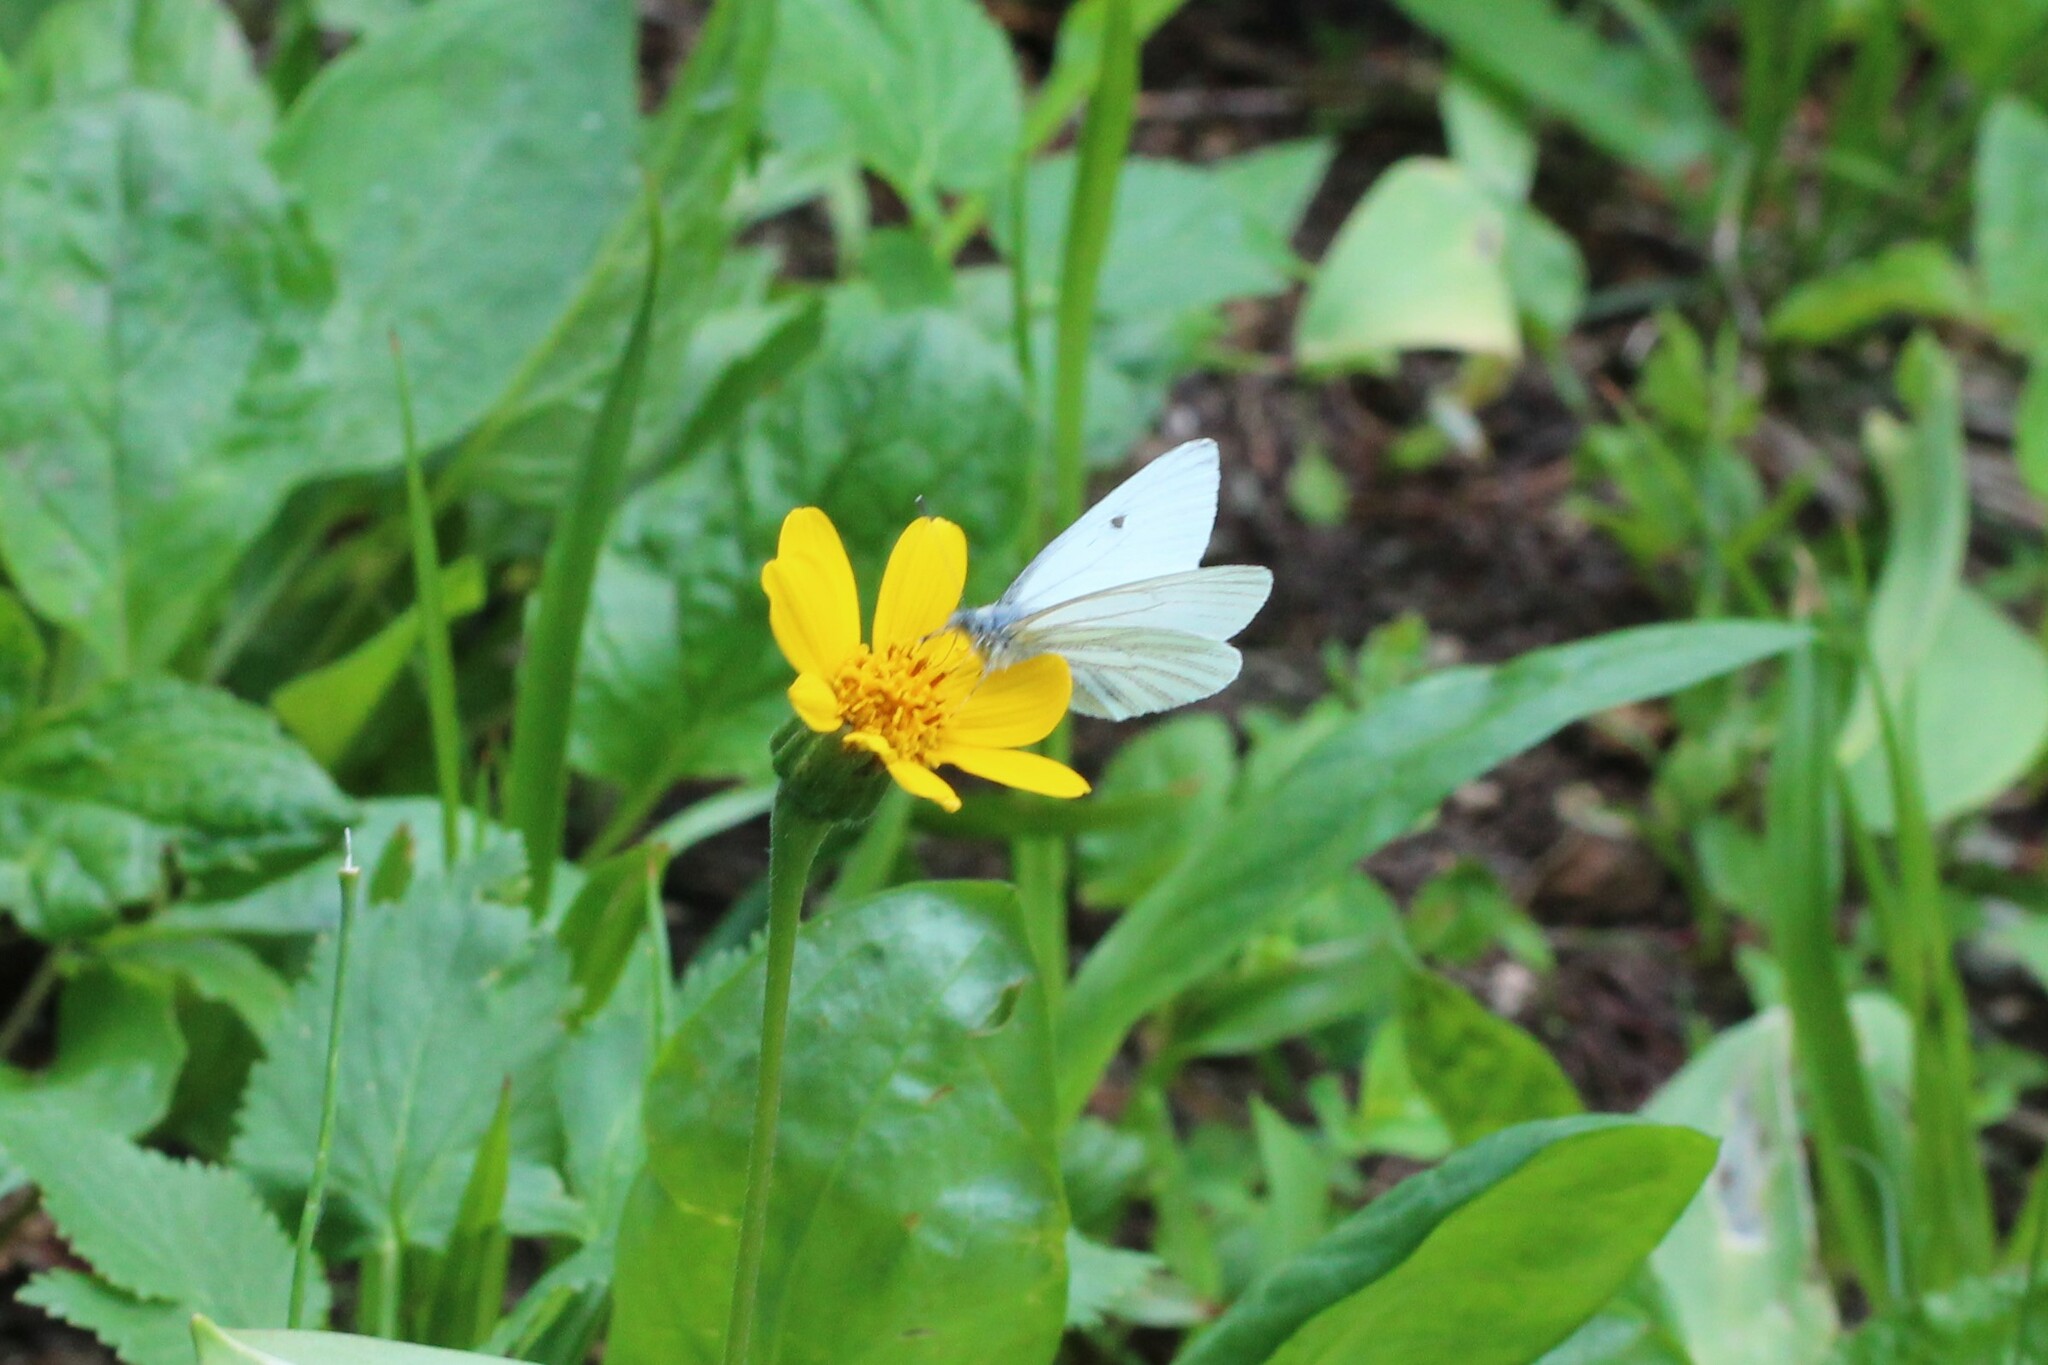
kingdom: Animalia
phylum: Arthropoda
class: Insecta
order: Lepidoptera
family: Pieridae
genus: Pieris
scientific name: Pieris marginalis
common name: Margined white
